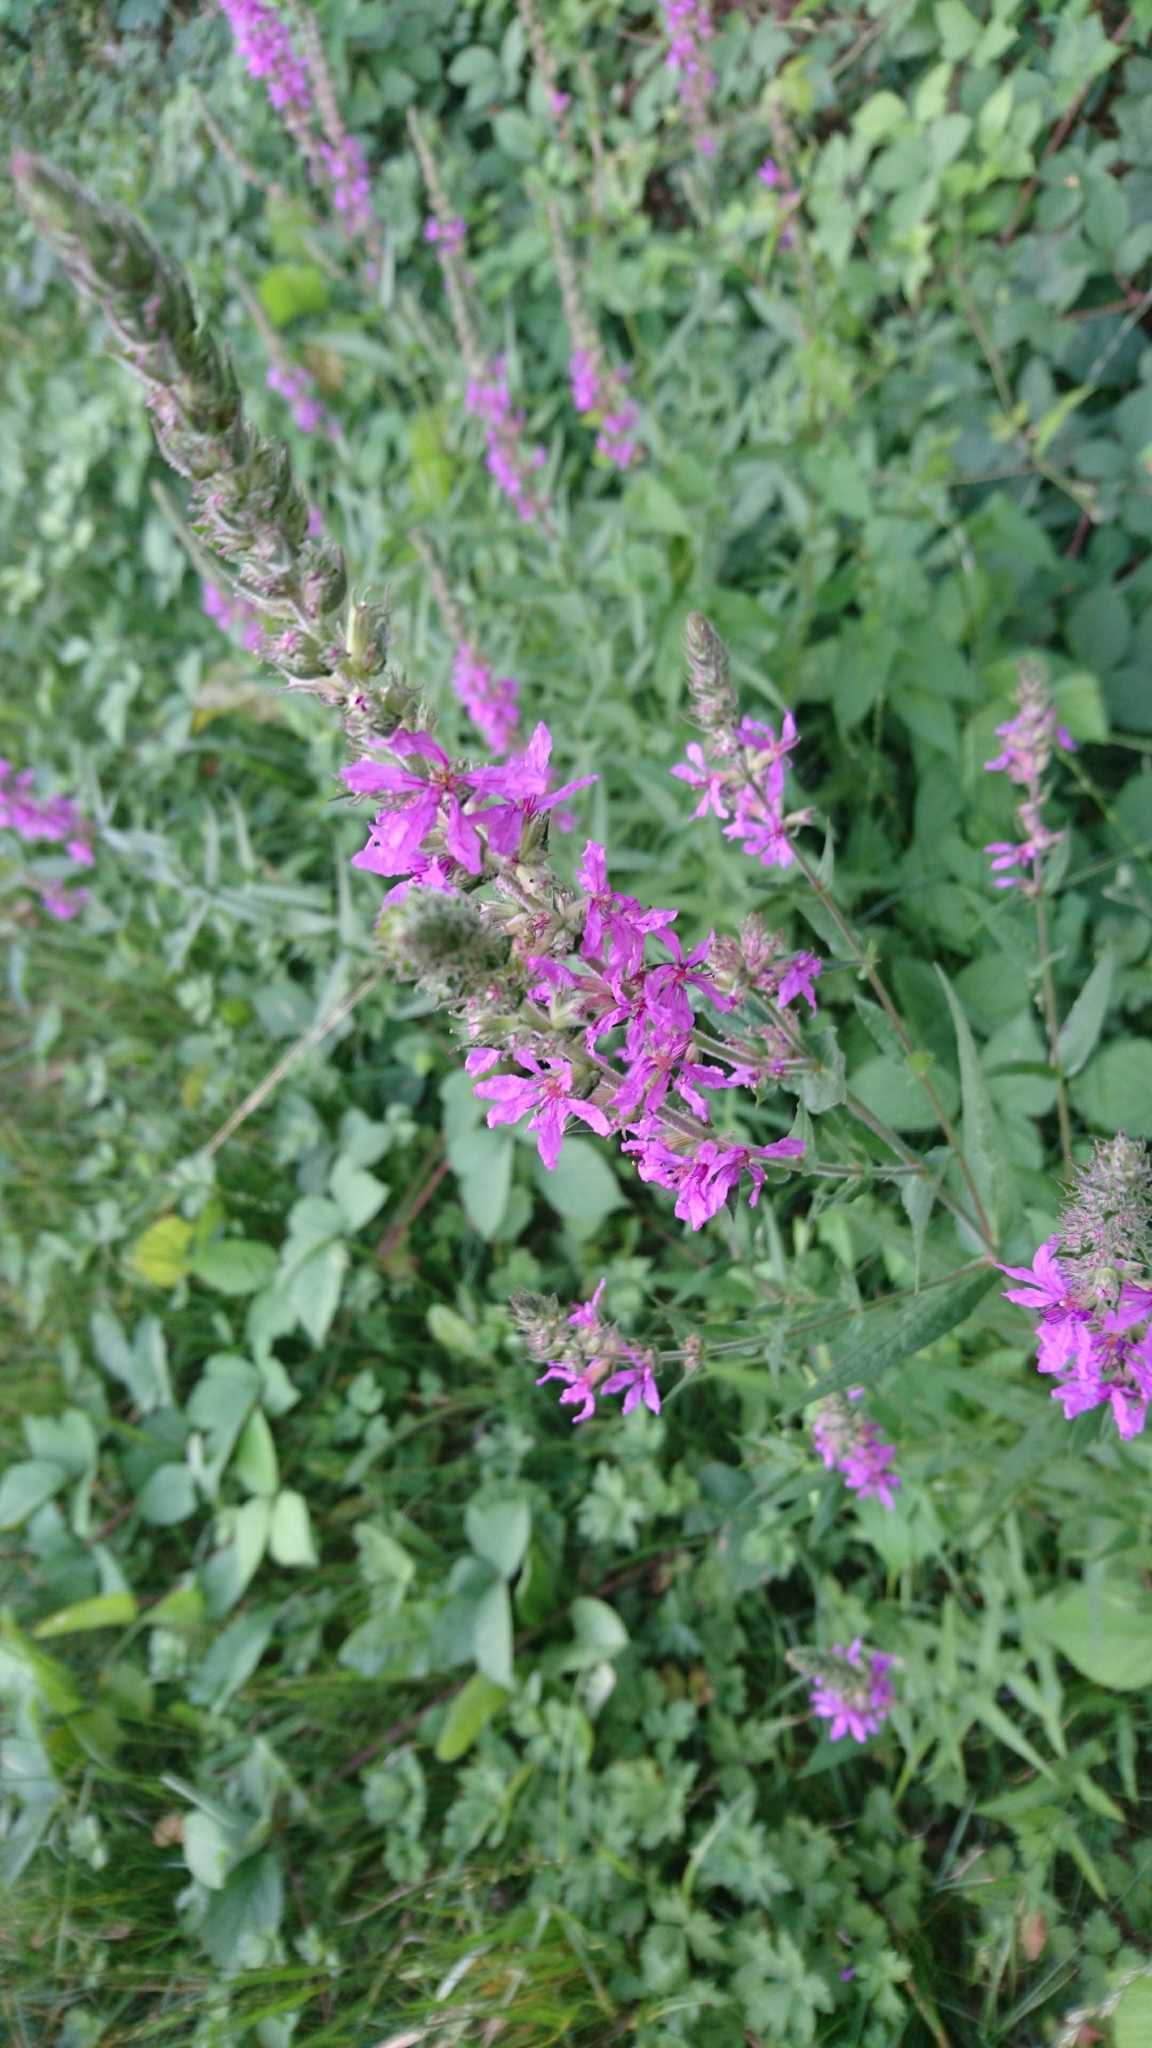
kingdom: Plantae
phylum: Tracheophyta
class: Magnoliopsida
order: Myrtales
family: Lythraceae
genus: Lythrum
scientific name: Lythrum salicaria
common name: Purple loosestrife
